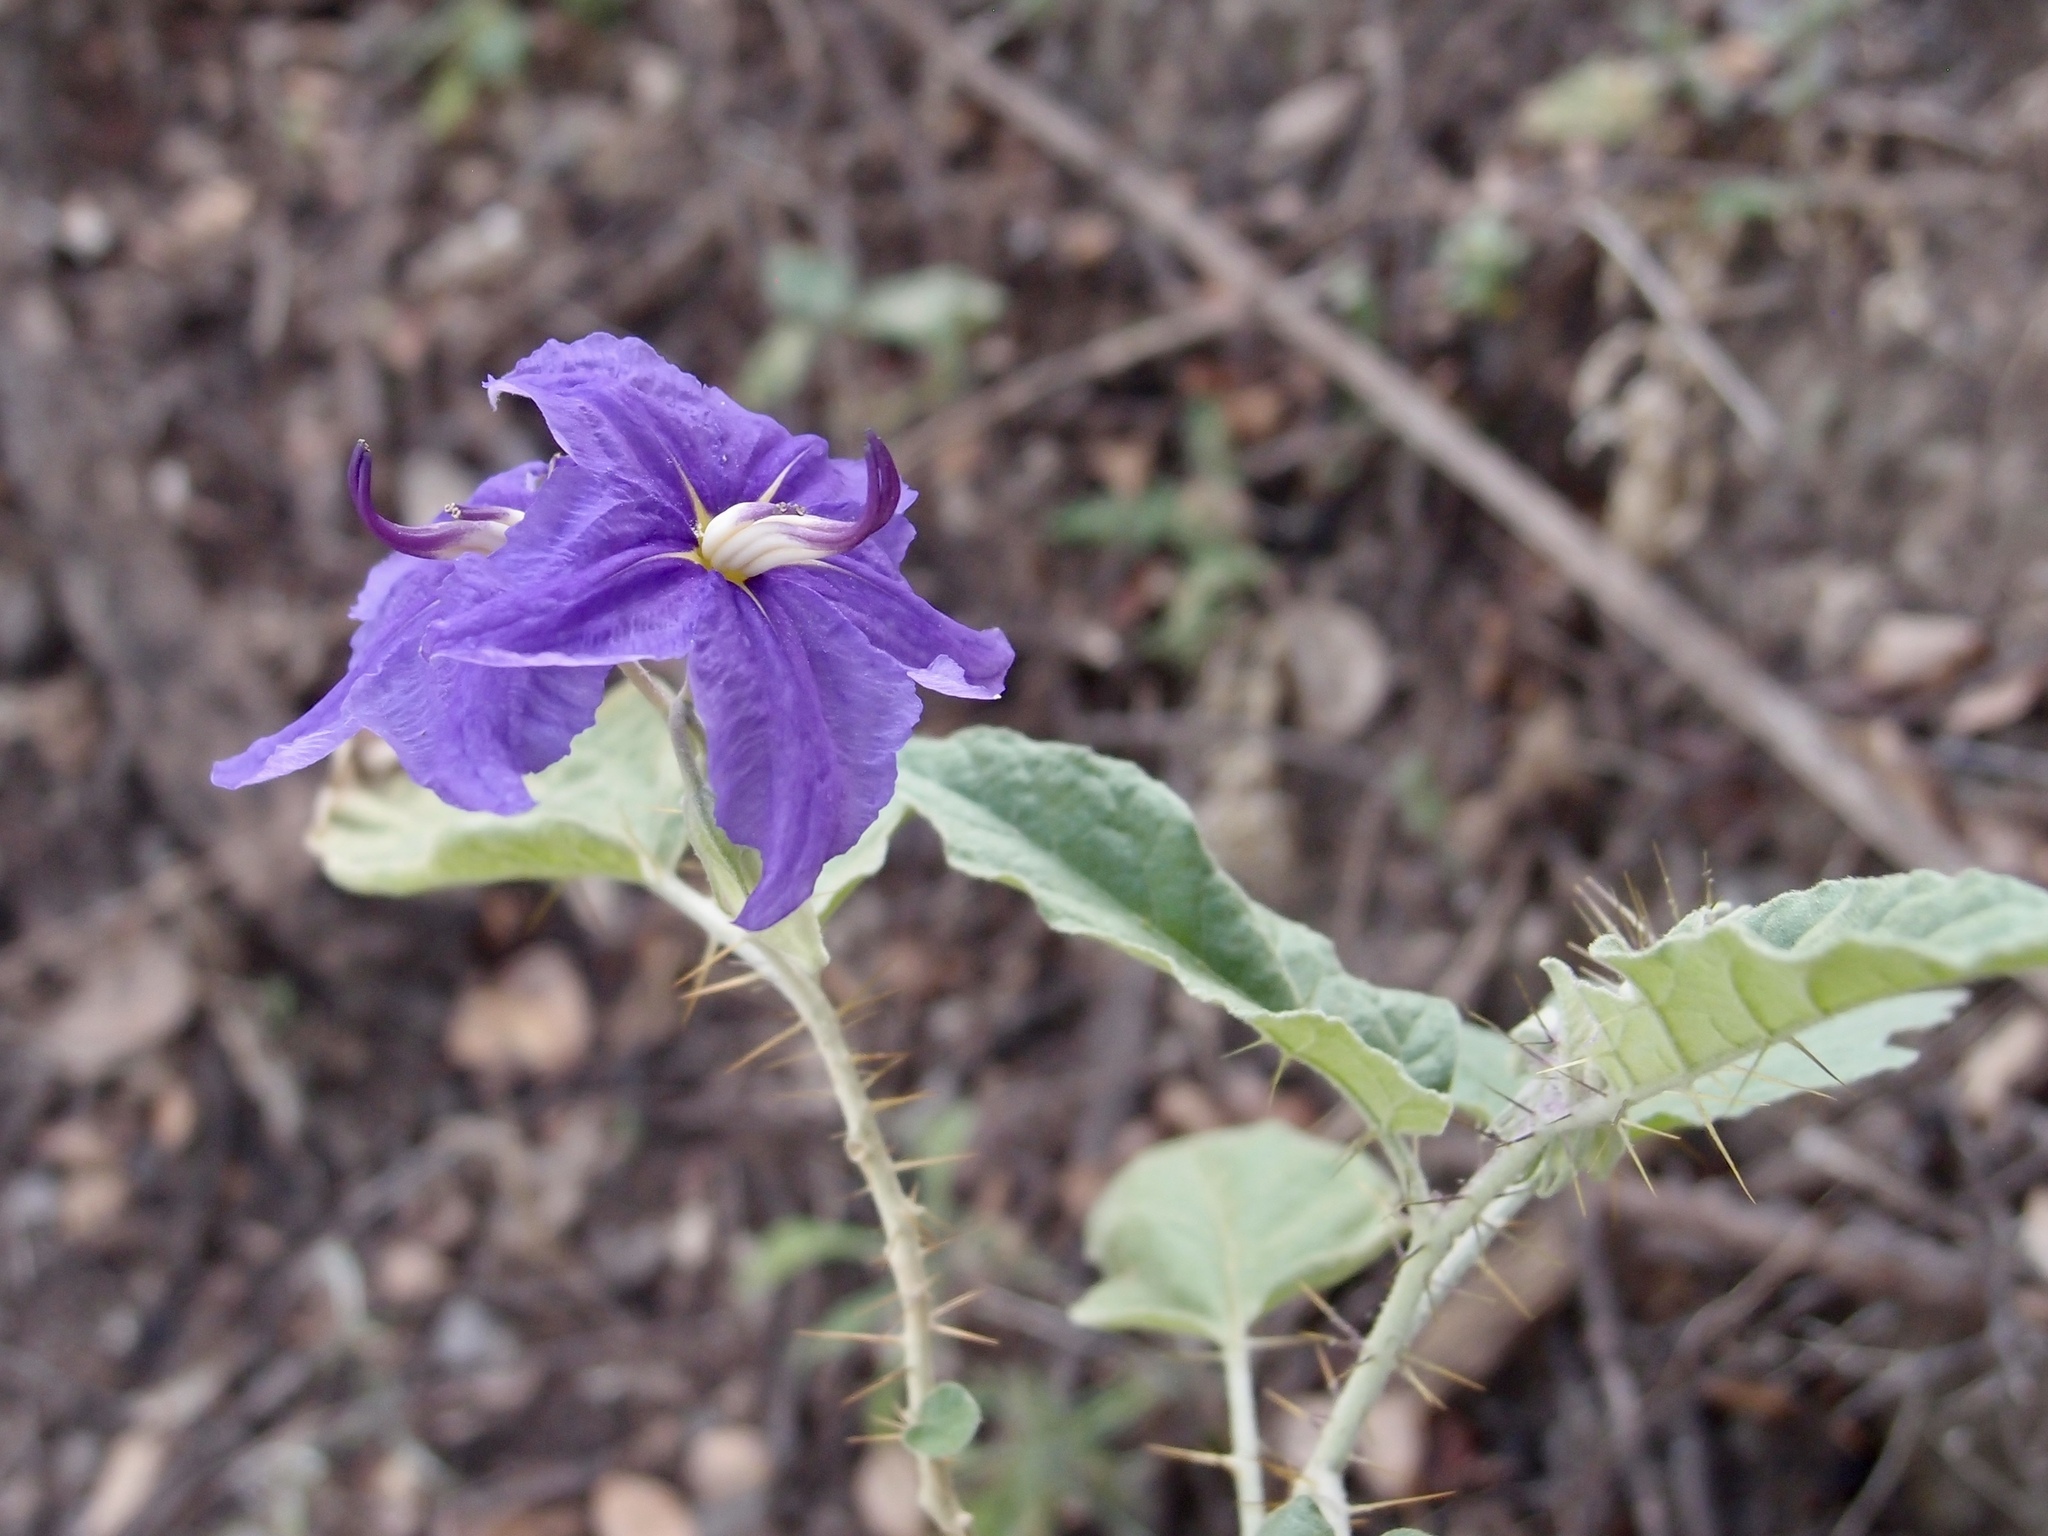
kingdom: Plantae
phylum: Tracheophyta
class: Magnoliopsida
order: Solanales
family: Solanaceae
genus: Solanum
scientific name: Solanum houstonii
